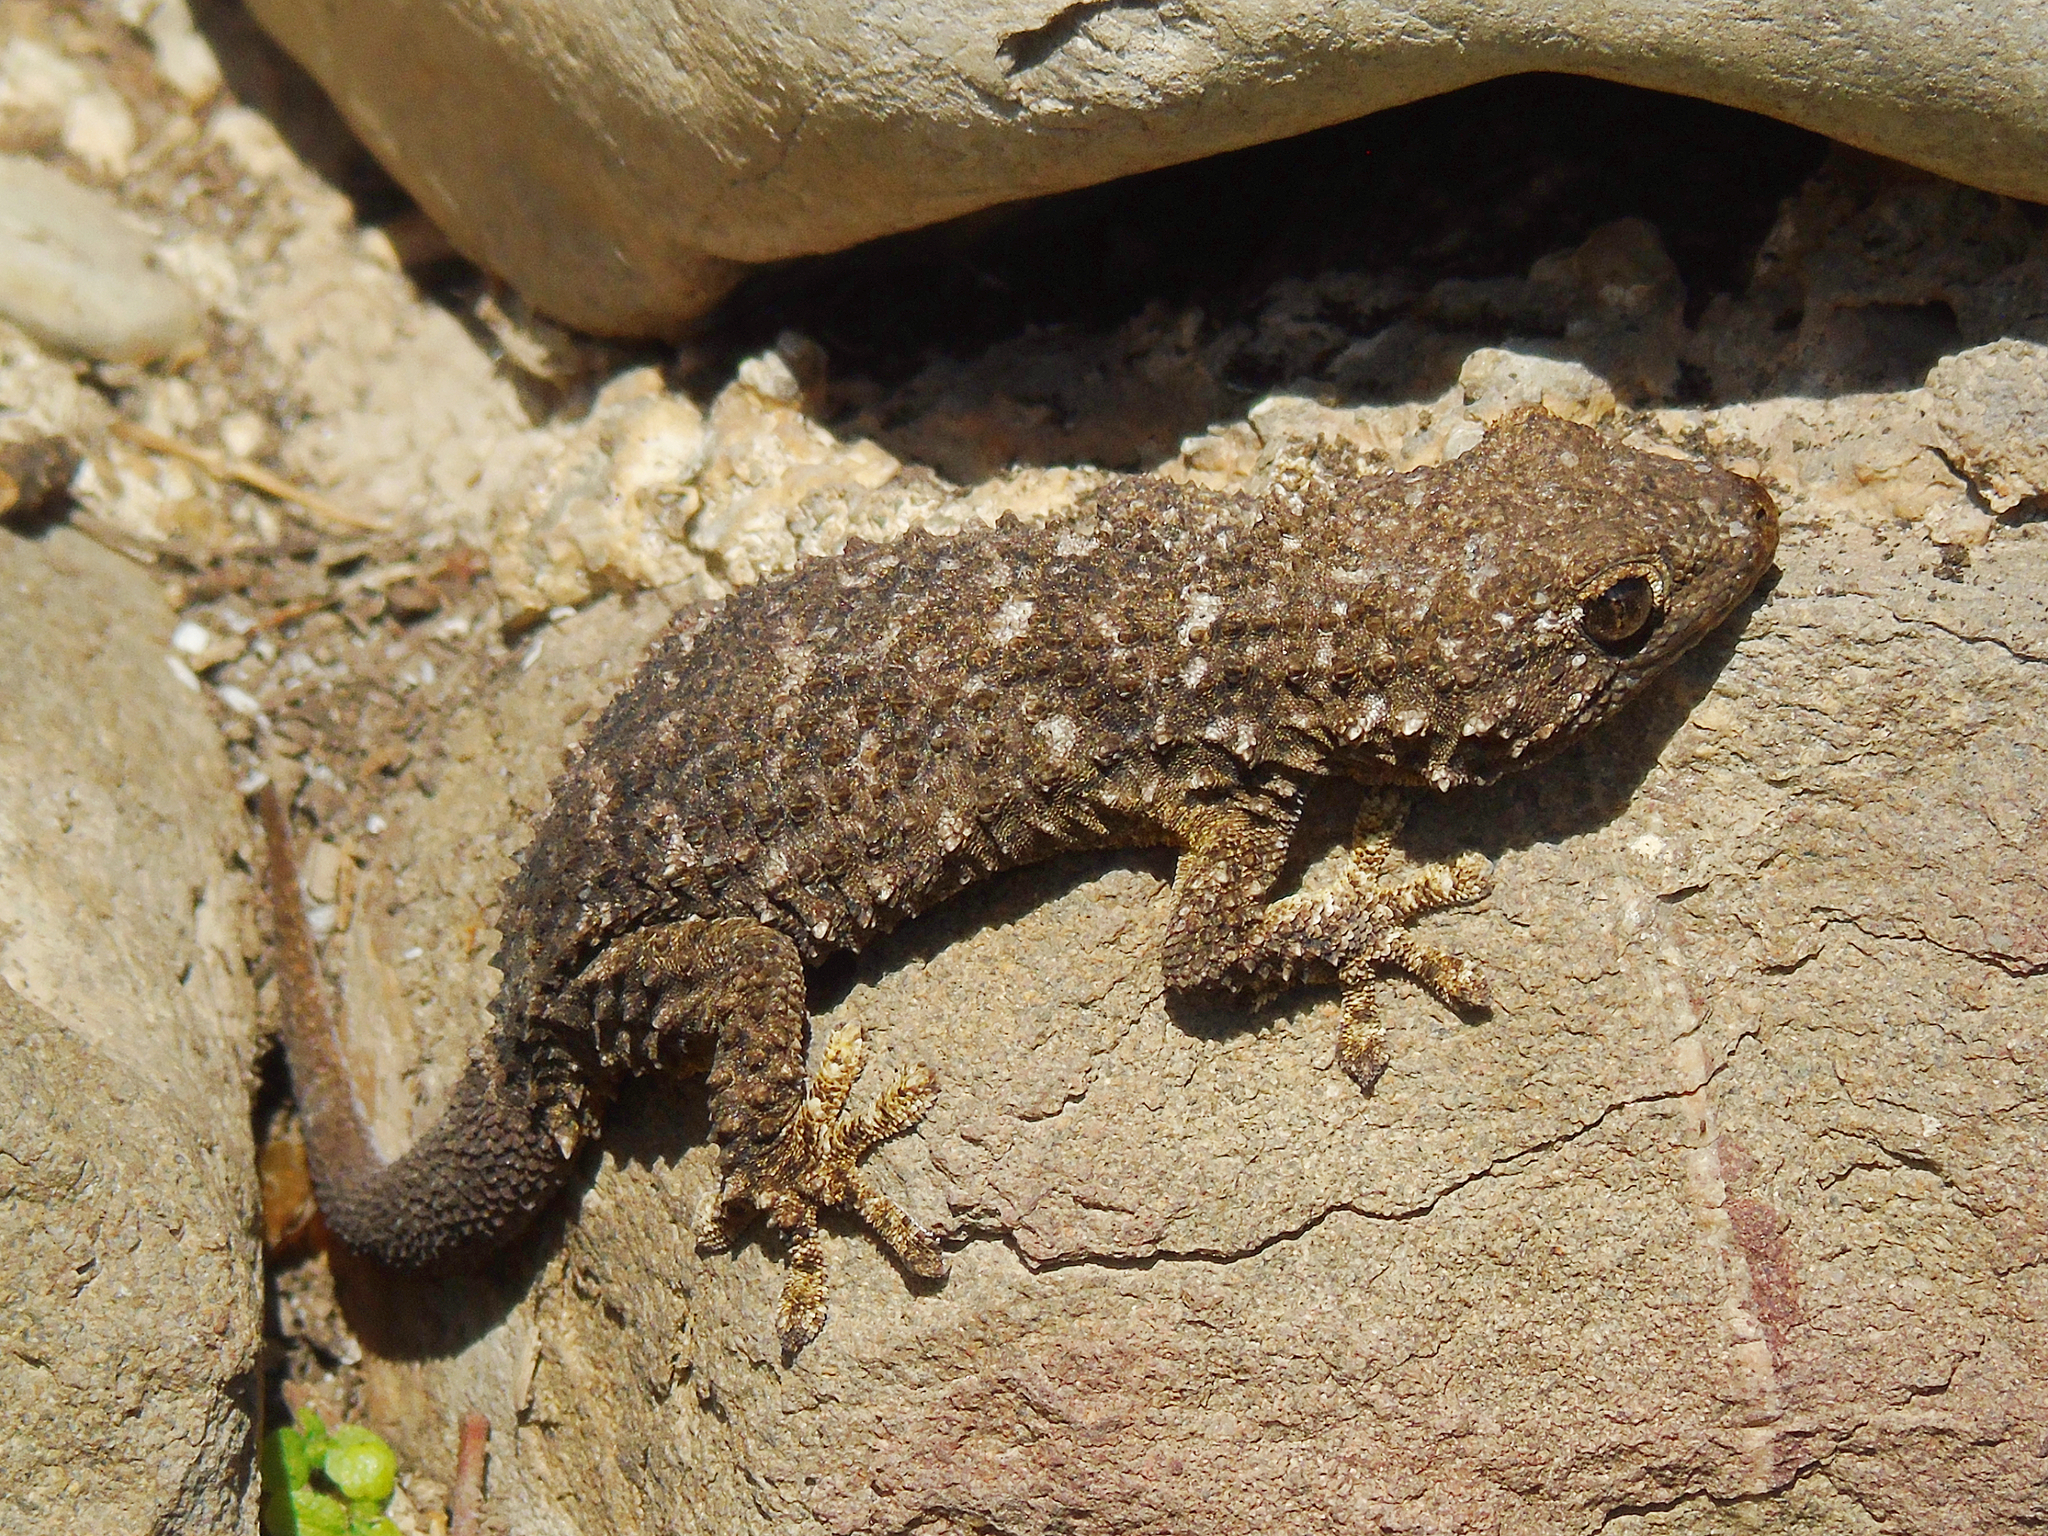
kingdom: Animalia
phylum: Chordata
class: Squamata
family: Phyllodactylidae
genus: Tarentola
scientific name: Tarentola mauritanica
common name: Moorish gecko
